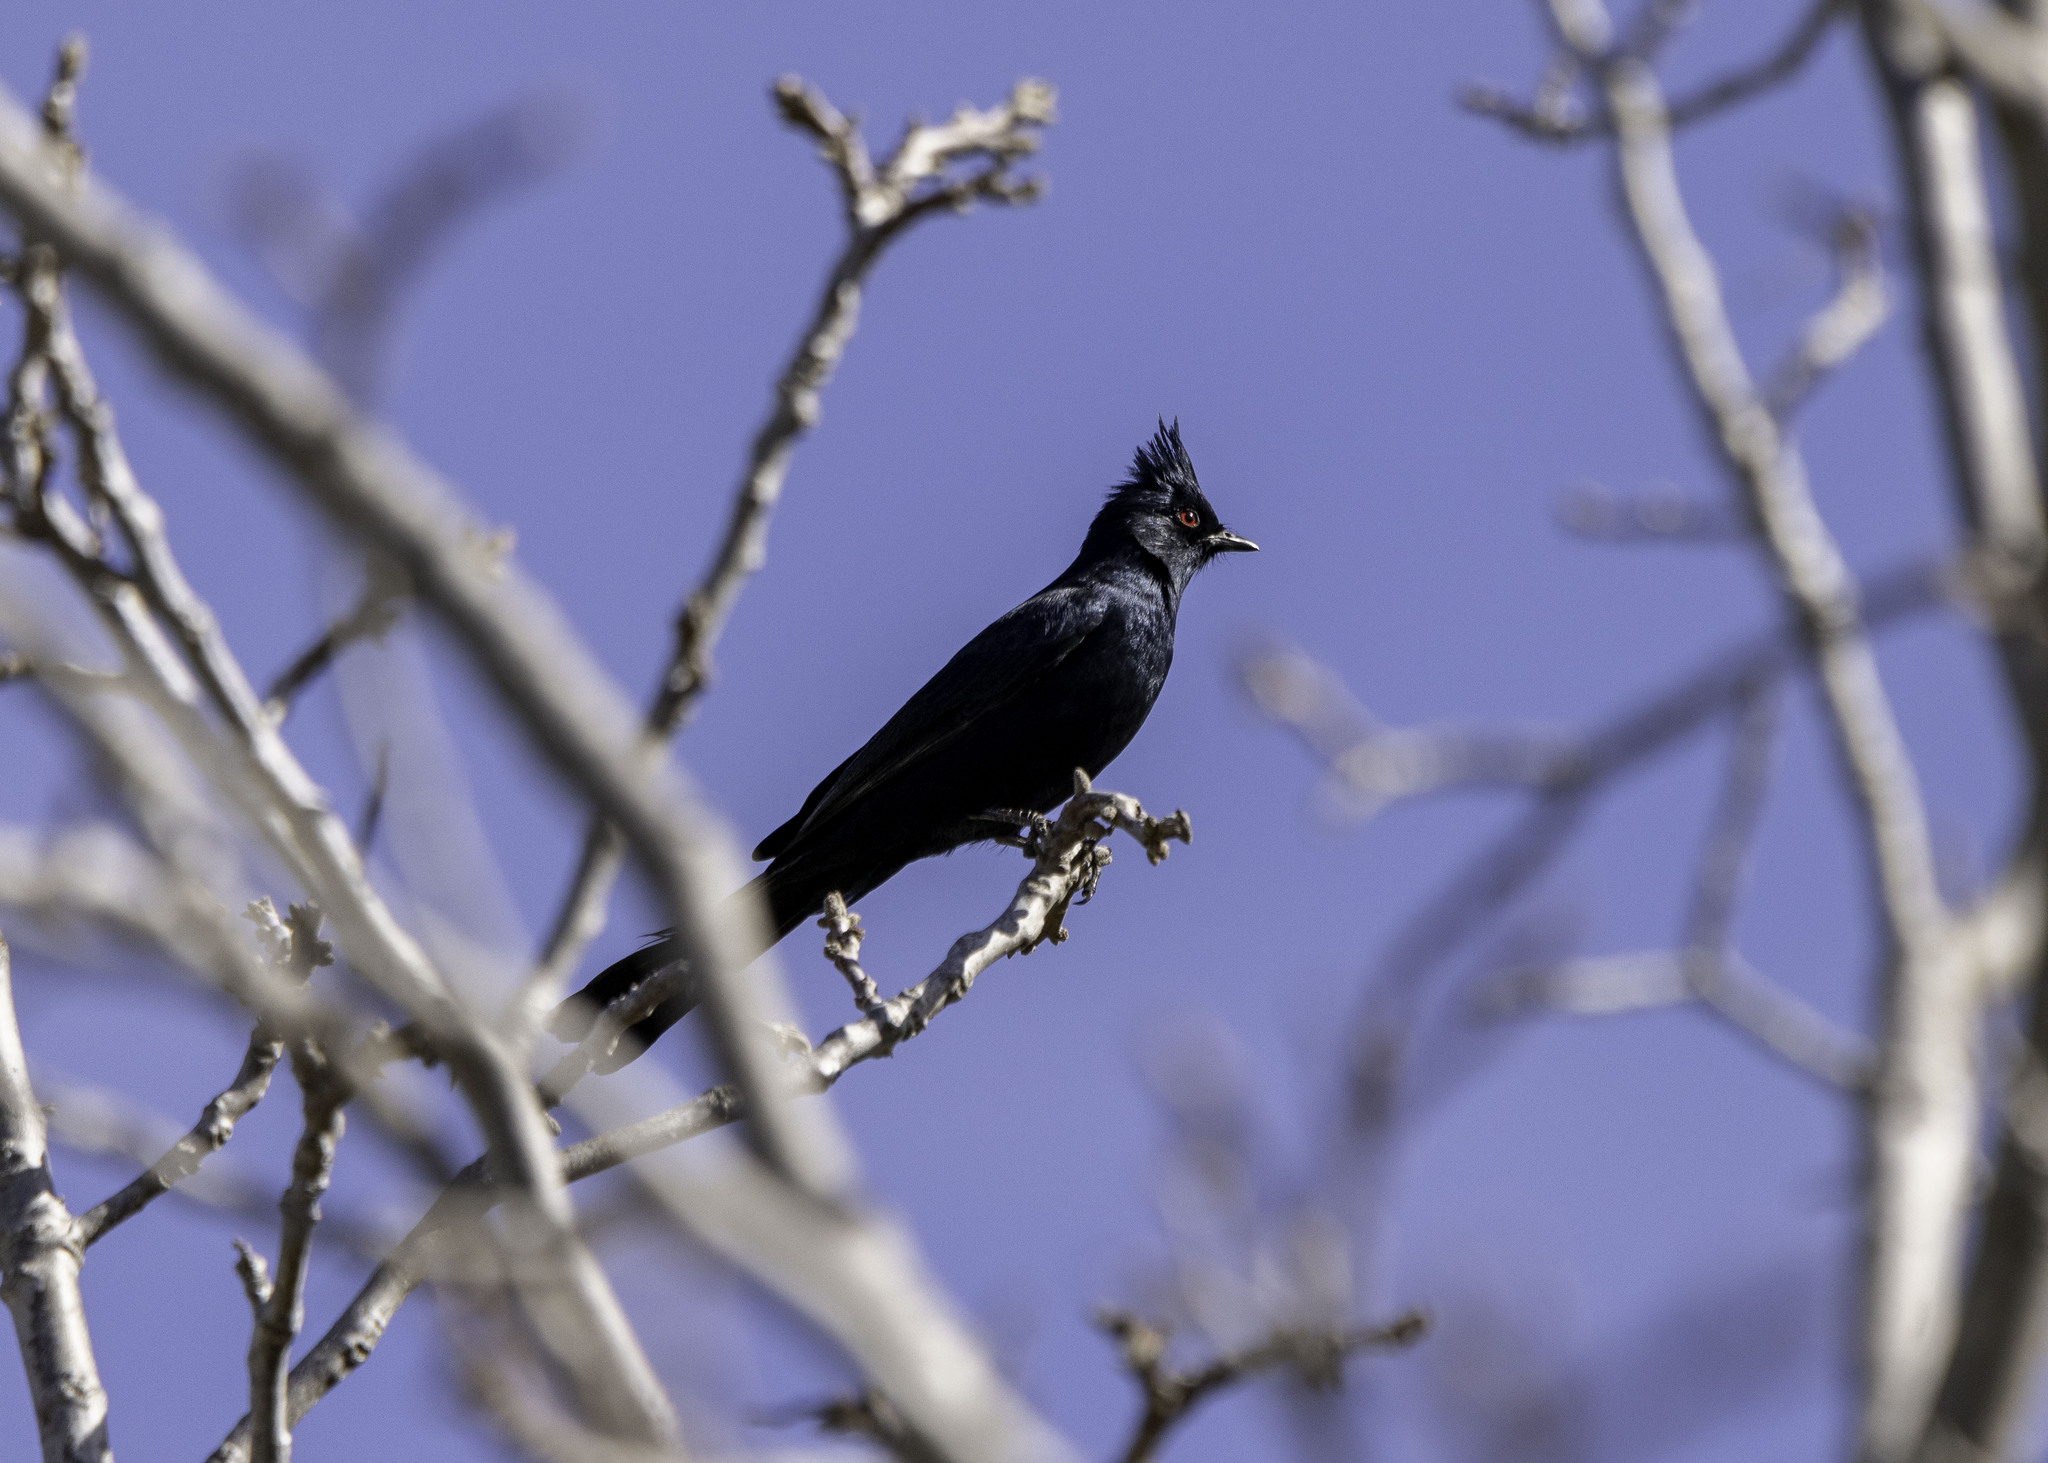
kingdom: Animalia
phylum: Chordata
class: Aves
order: Passeriformes
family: Ptilogonatidae
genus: Phainopepla
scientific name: Phainopepla nitens
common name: Phainopepla
